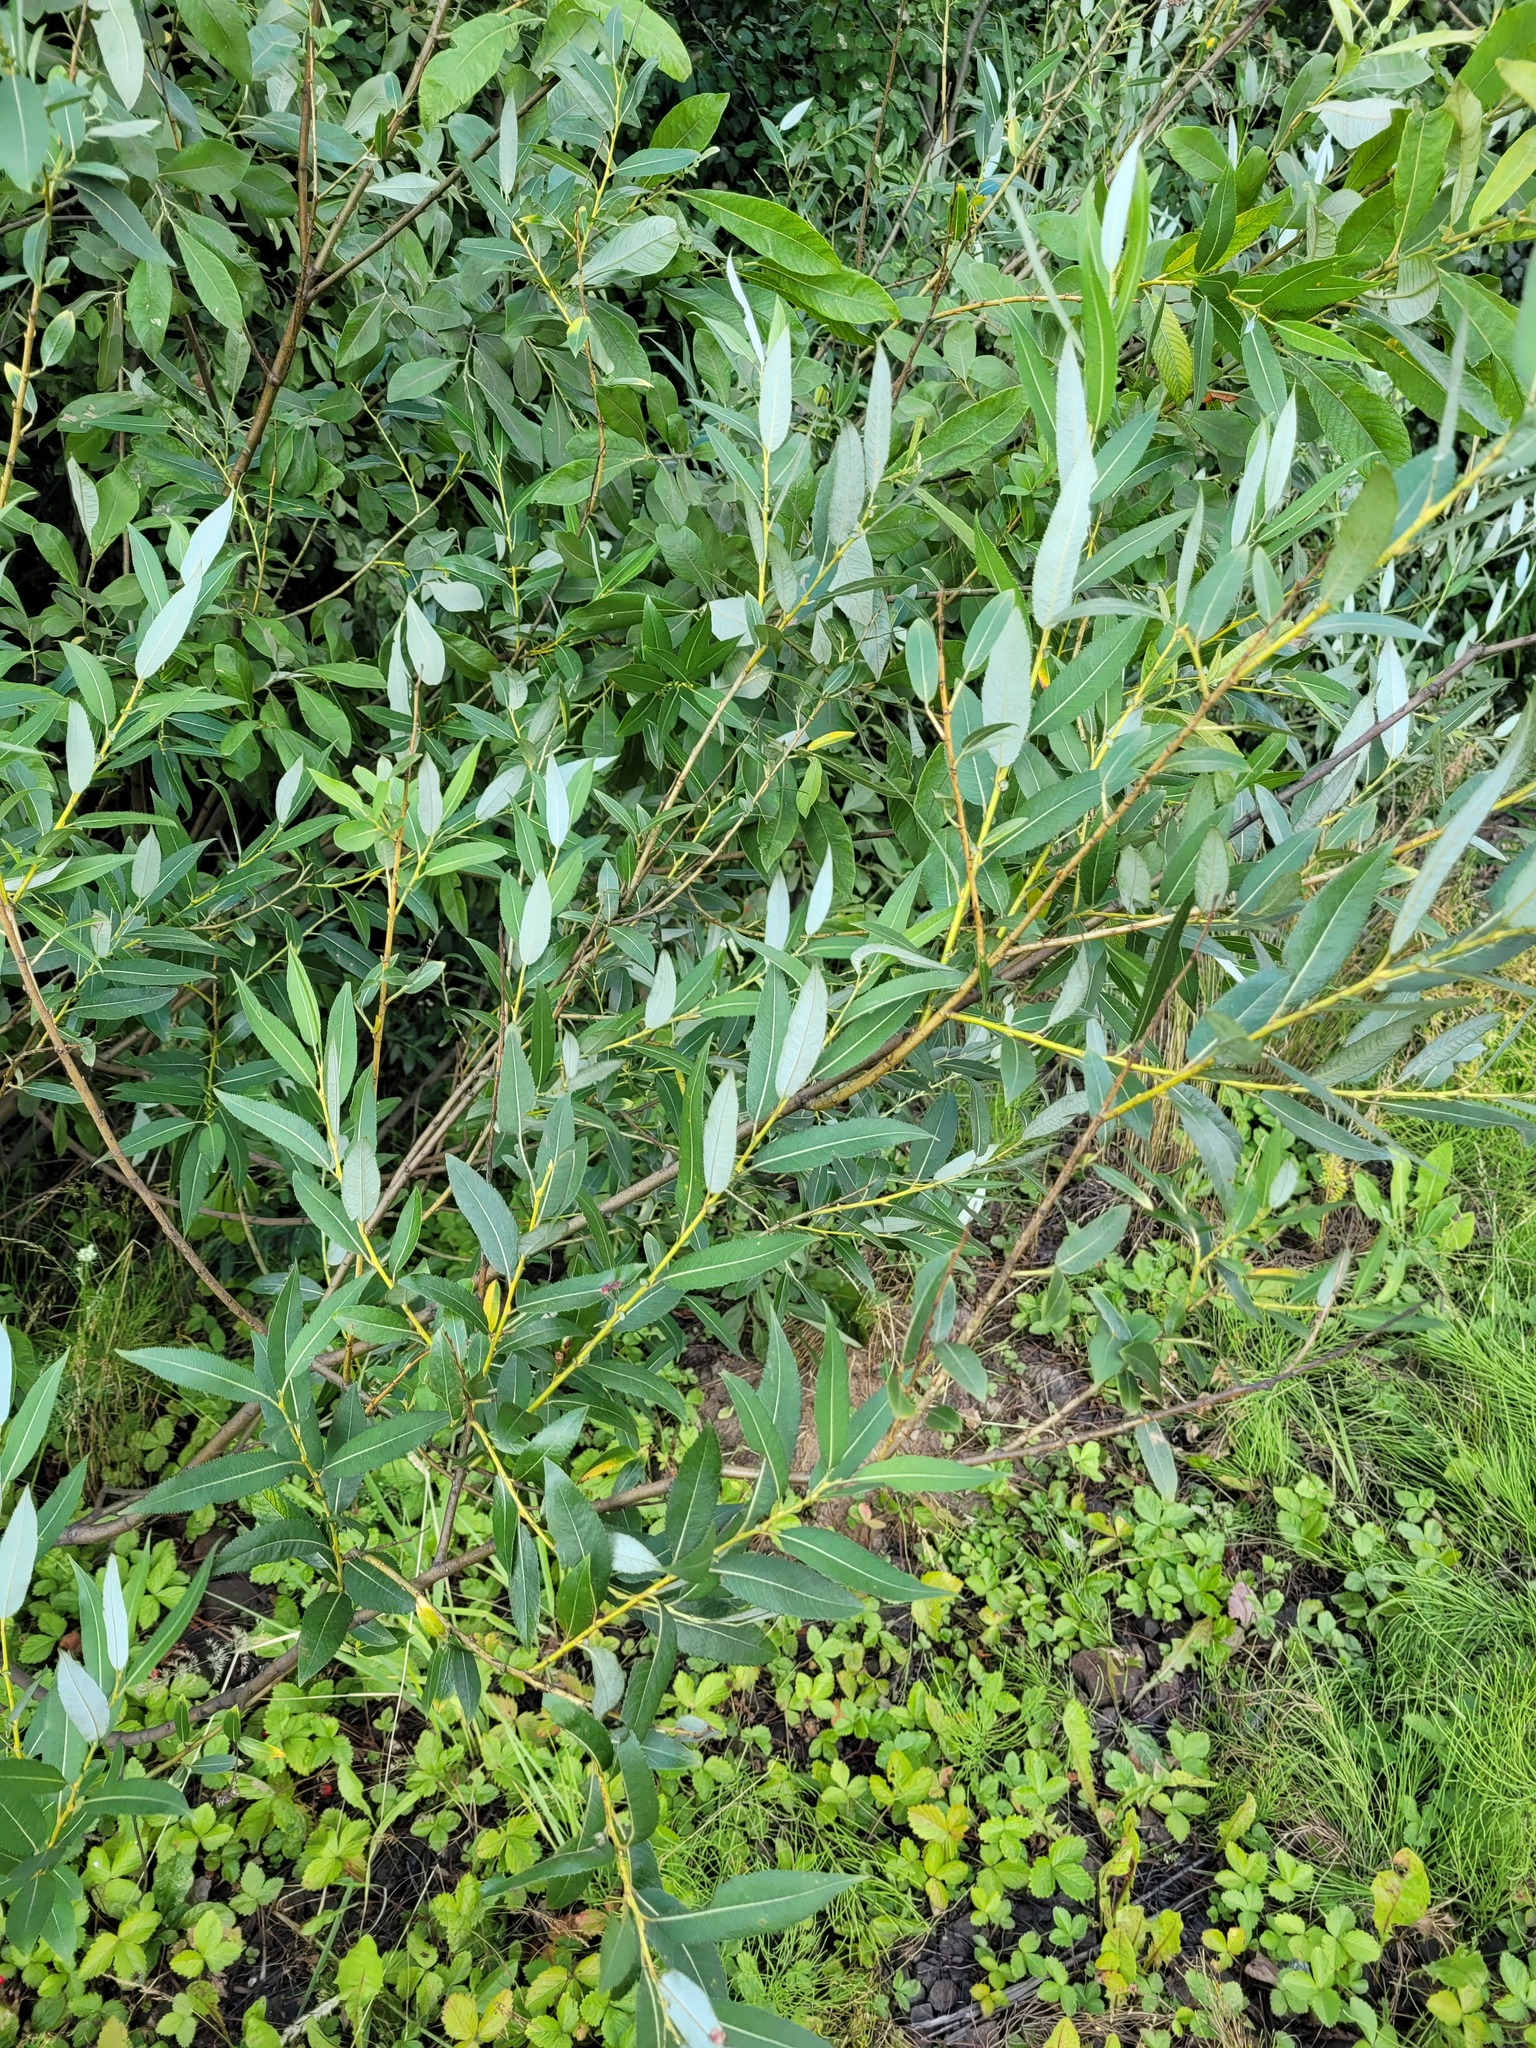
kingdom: Plantae
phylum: Tracheophyta
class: Magnoliopsida
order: Malpighiales
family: Salicaceae
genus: Salix
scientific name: Salix triandra
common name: Almond willow
